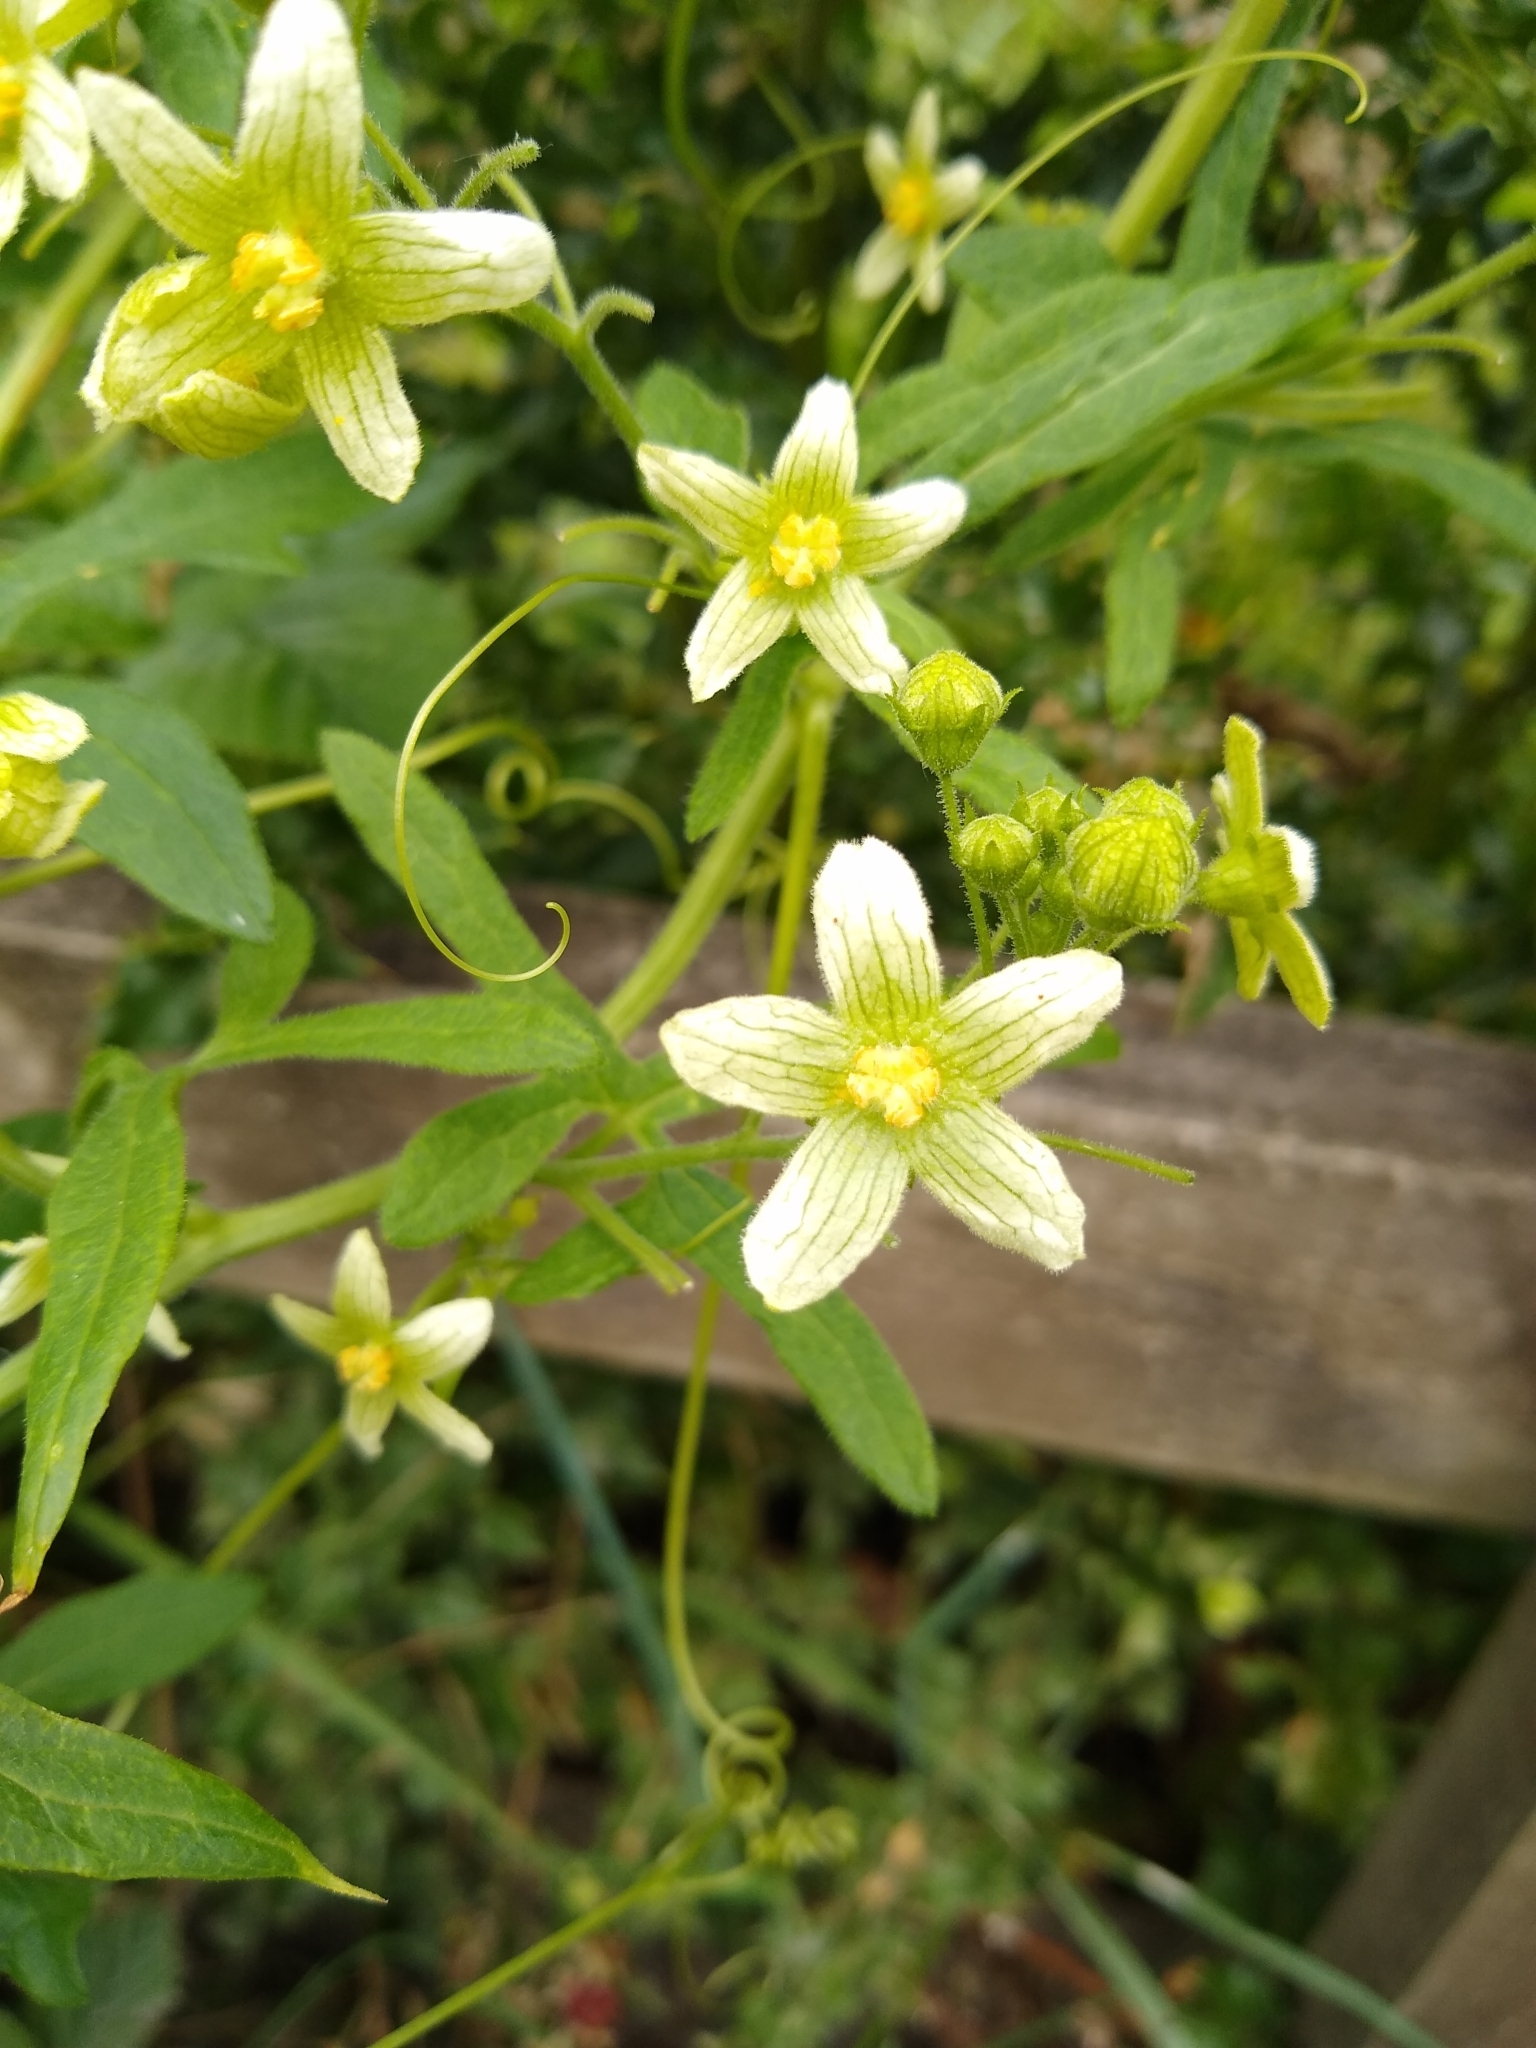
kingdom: Plantae
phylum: Tracheophyta
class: Magnoliopsida
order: Cucurbitales
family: Cucurbitaceae
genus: Bryonia
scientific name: Bryonia cretica
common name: Cretan bryony
